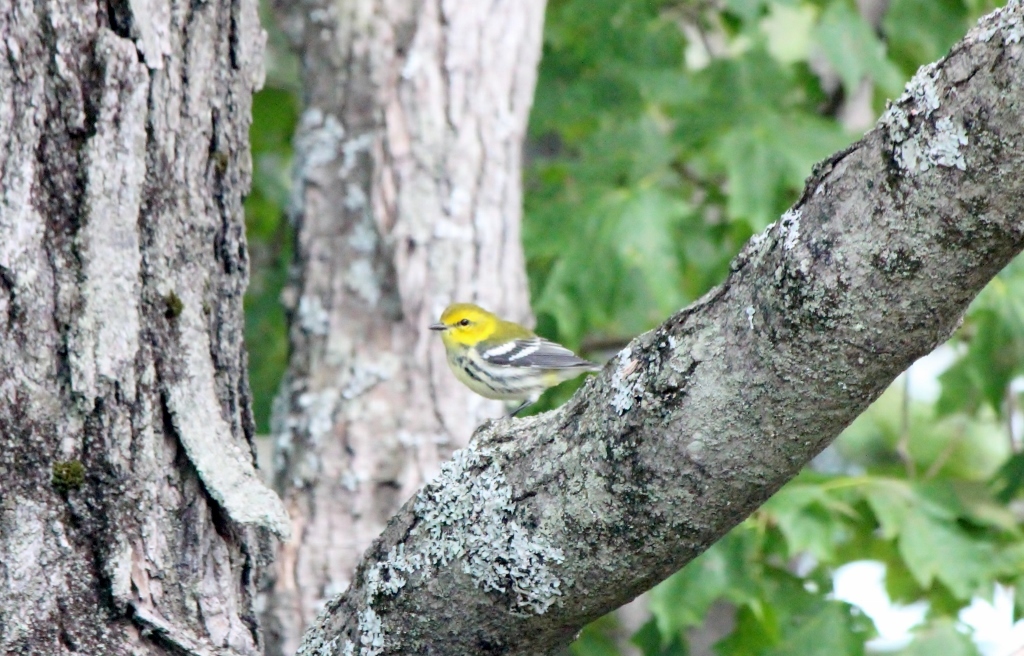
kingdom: Animalia
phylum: Chordata
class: Aves
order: Passeriformes
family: Parulidae
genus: Setophaga
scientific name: Setophaga virens
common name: Black-throated green warbler
